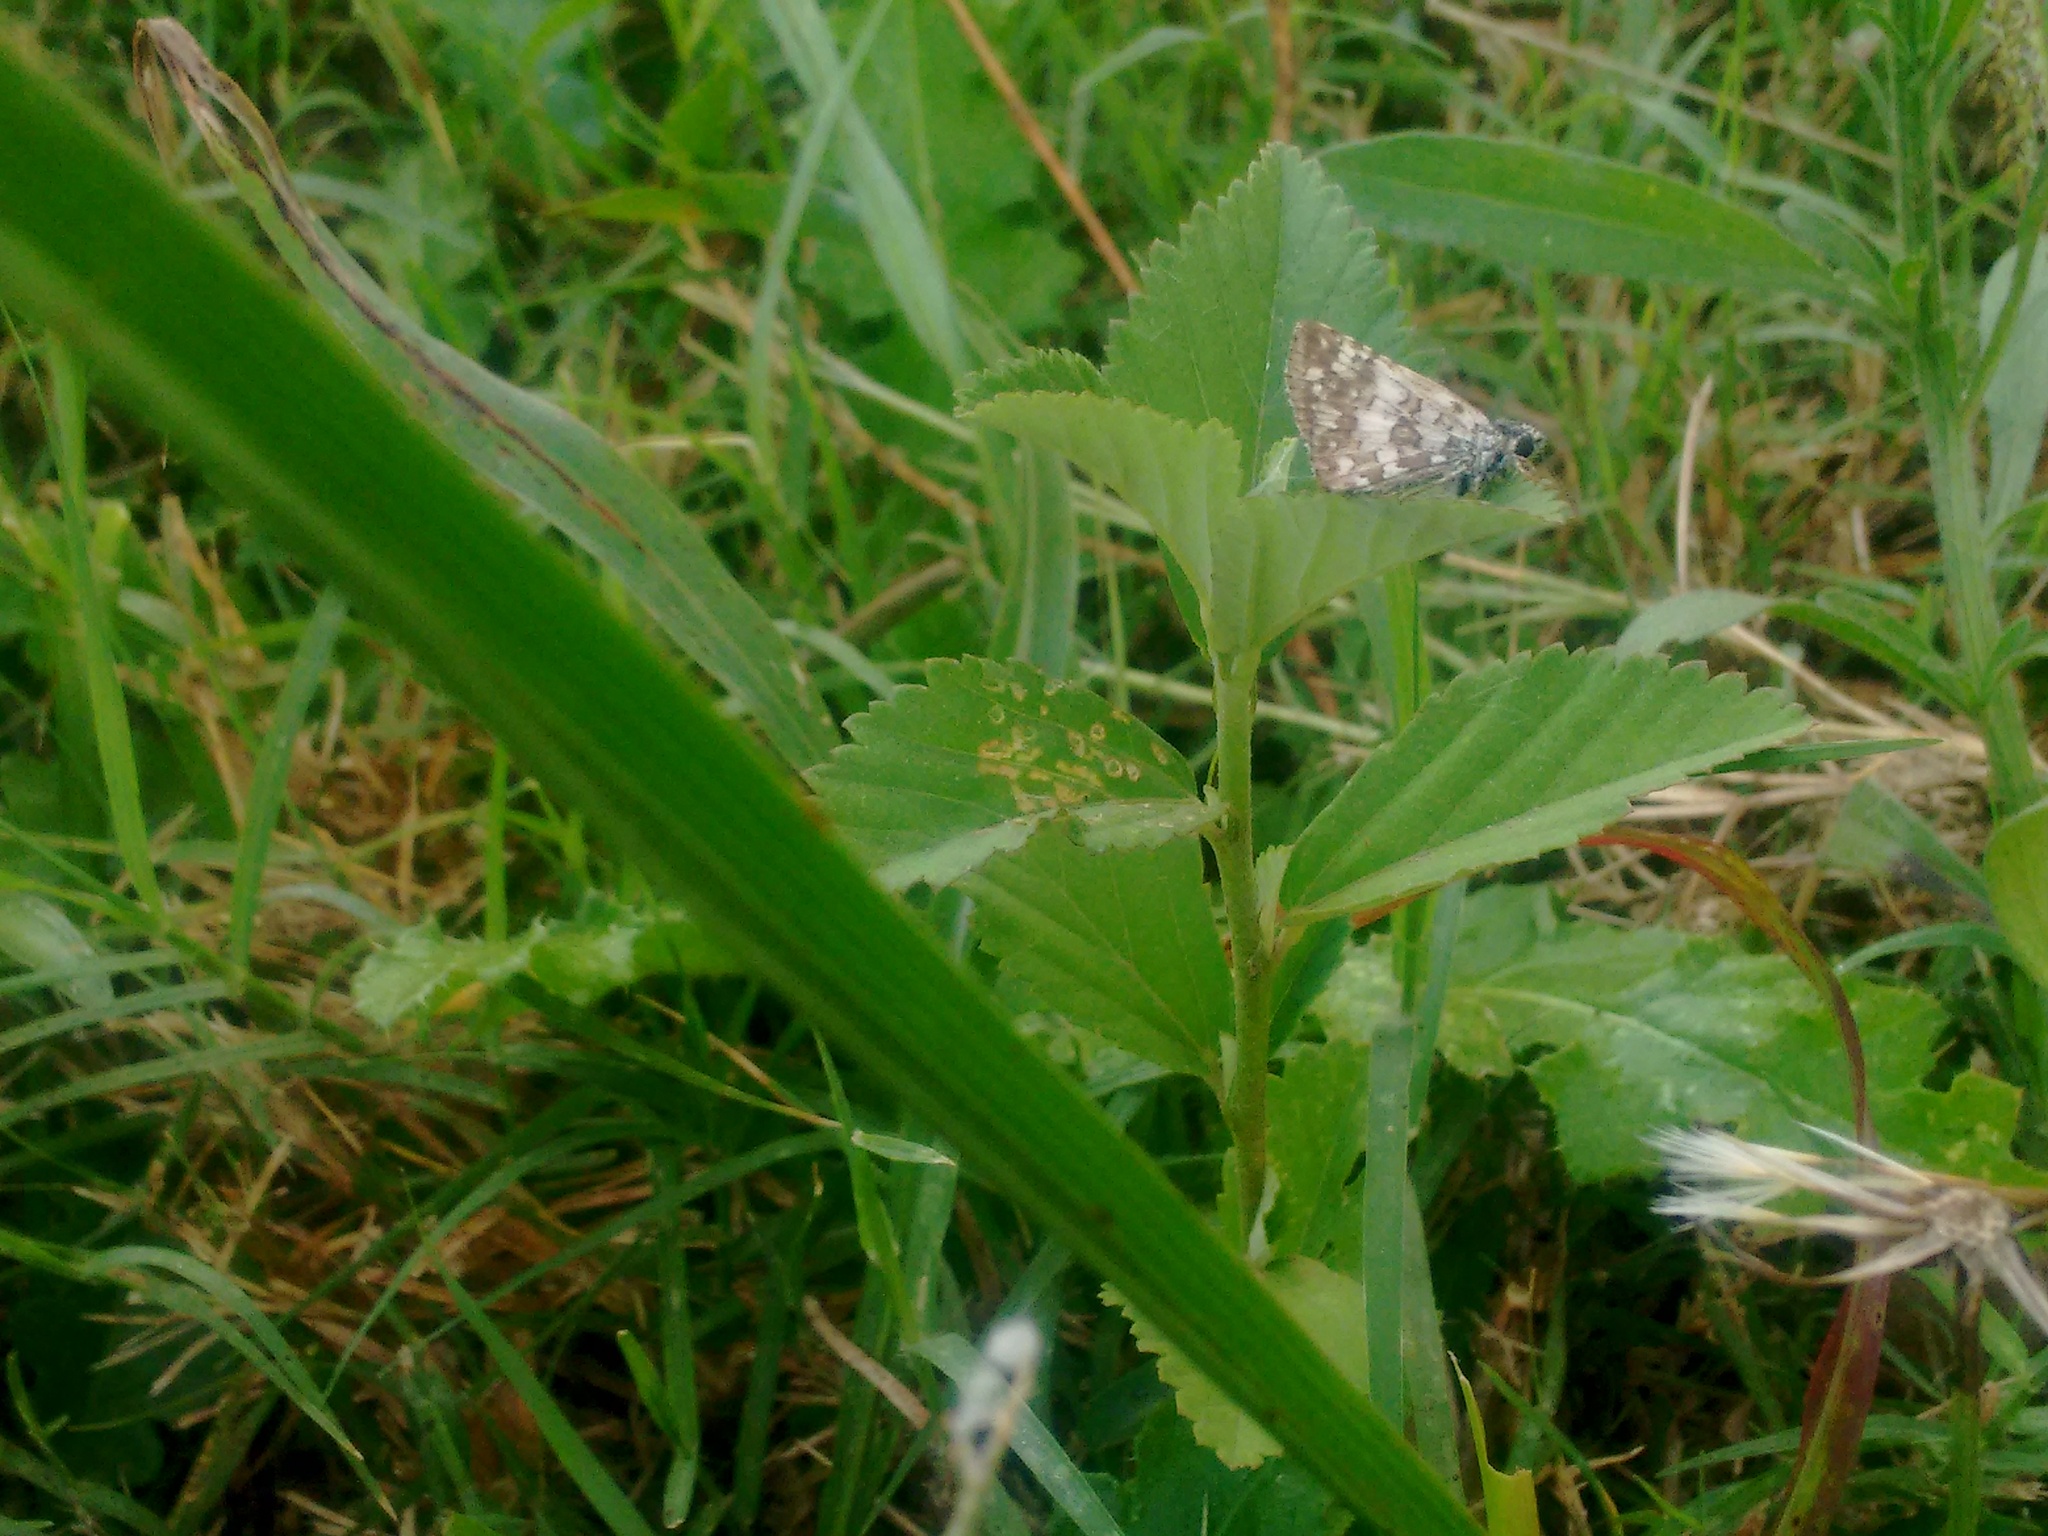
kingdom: Animalia
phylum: Arthropoda
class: Insecta
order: Lepidoptera
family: Hesperiidae
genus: Burnsius
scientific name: Burnsius orcynoides
